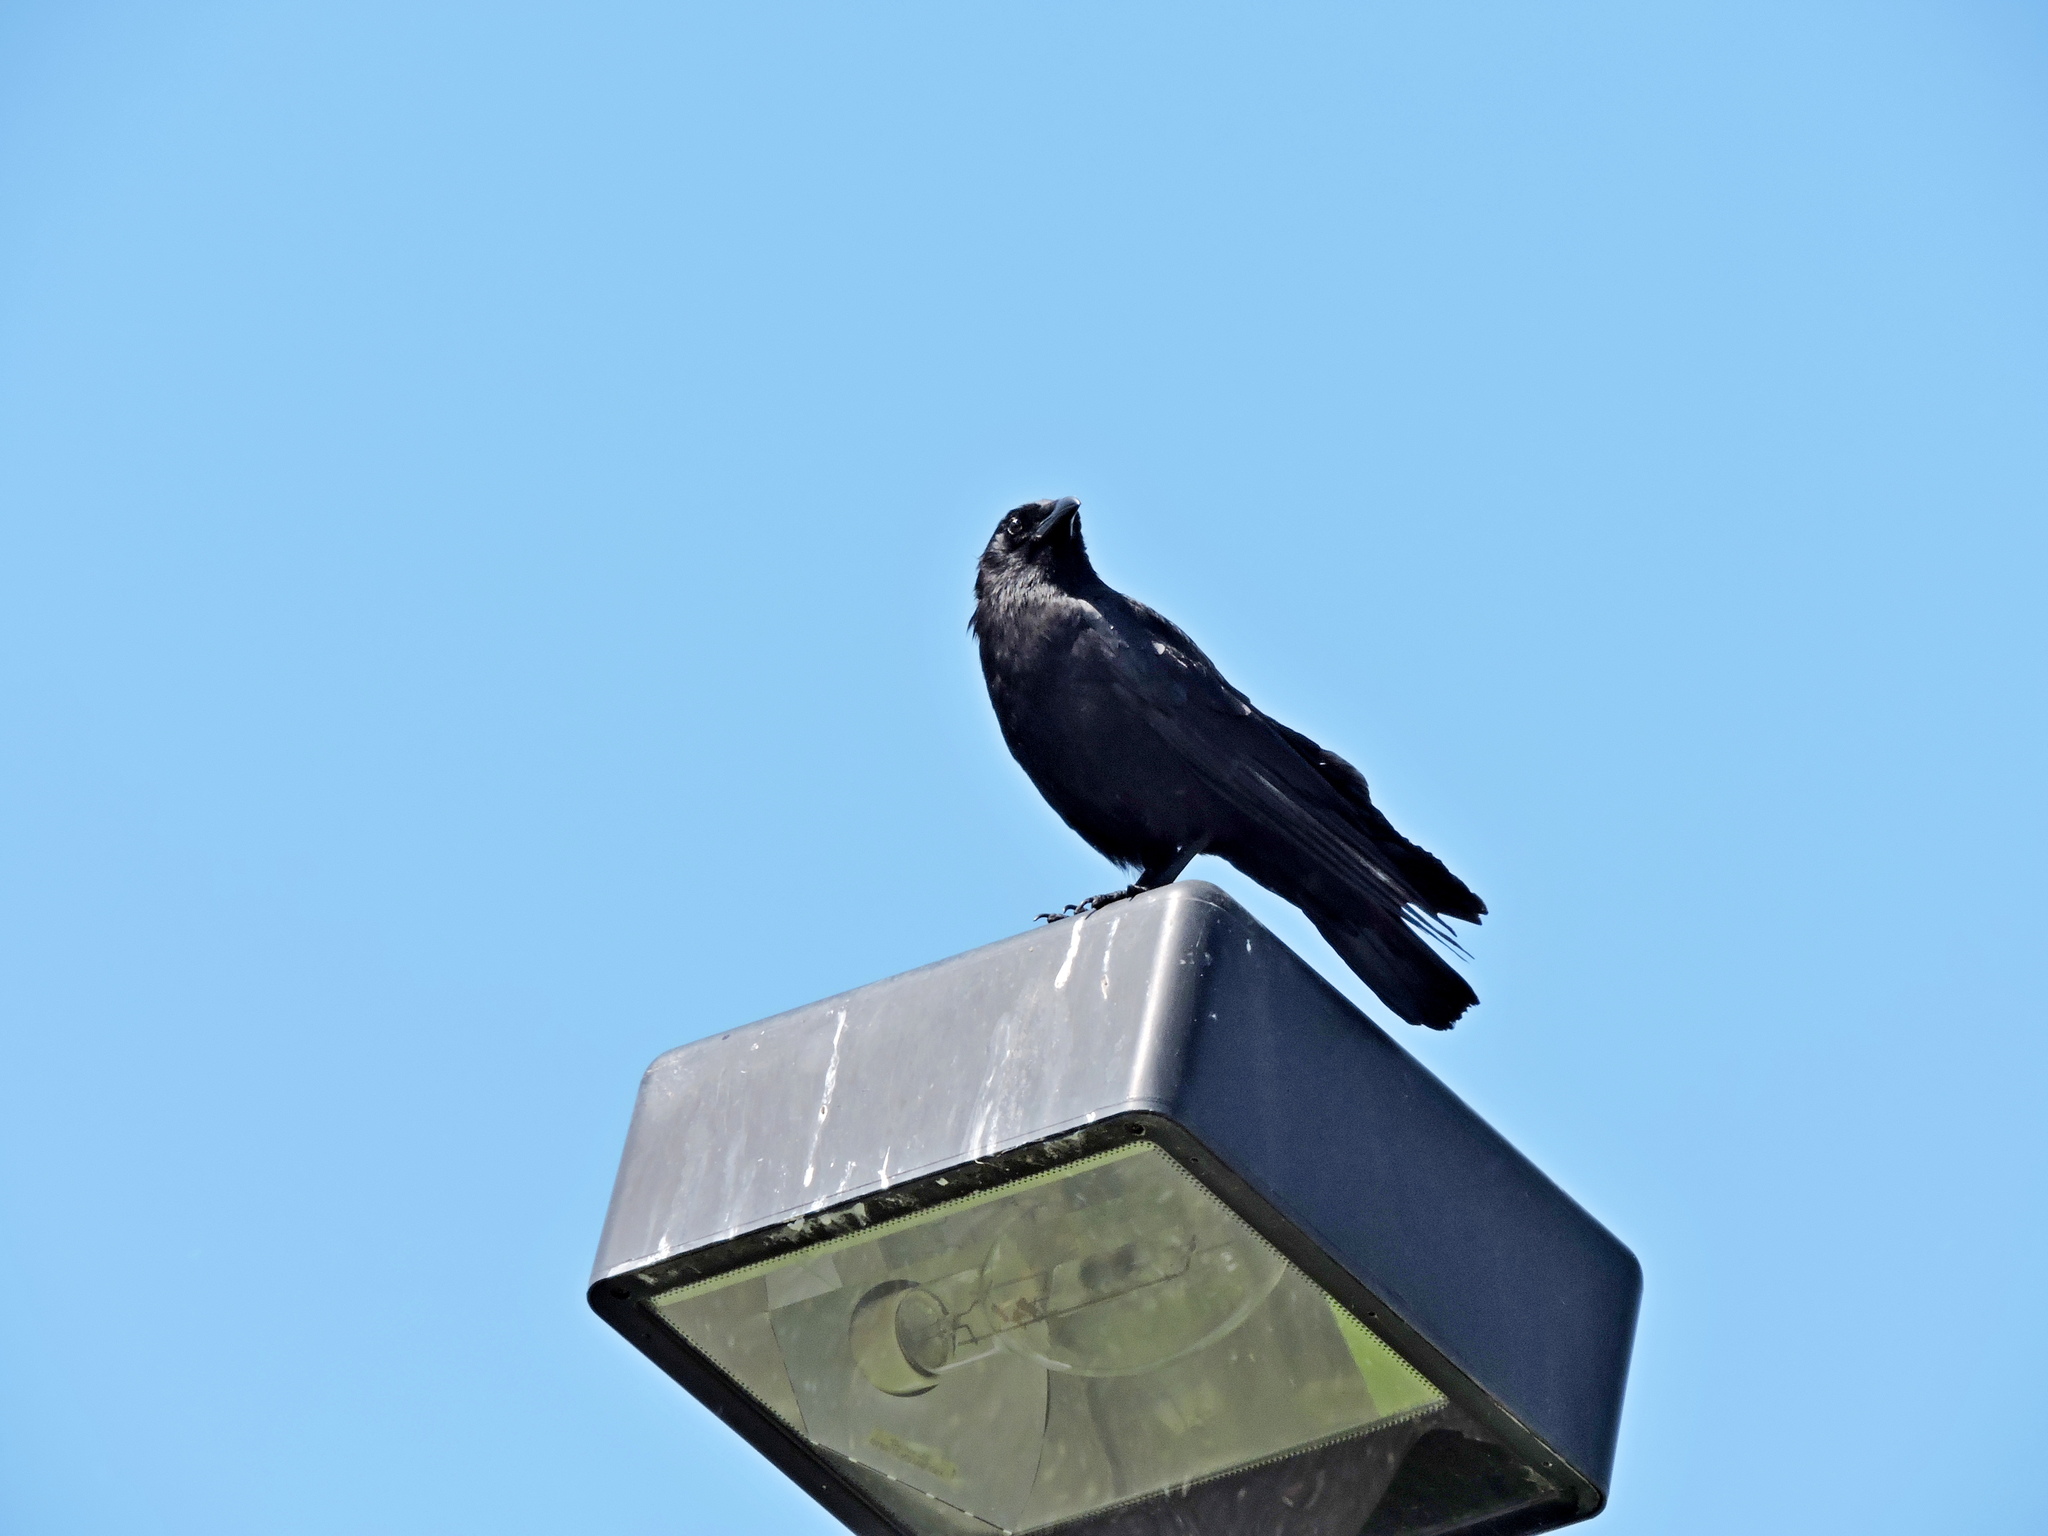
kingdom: Animalia
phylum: Chordata
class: Aves
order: Passeriformes
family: Corvidae
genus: Corvus
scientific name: Corvus brachyrhynchos
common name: American crow
